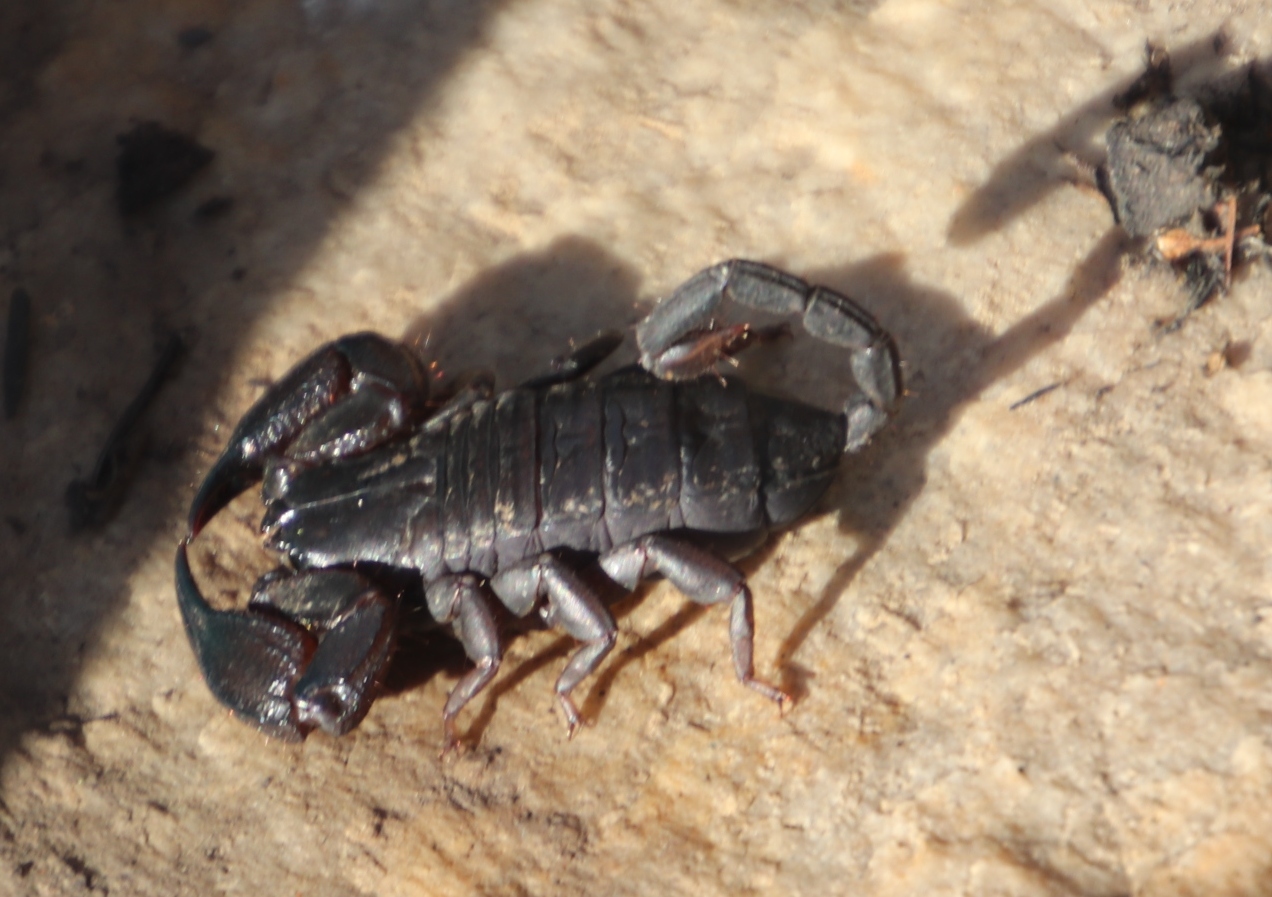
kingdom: Animalia
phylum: Arthropoda
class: Arachnida
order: Scorpiones
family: Hormuridae
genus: Opisthacanthus
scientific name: Opisthacanthus capensis
